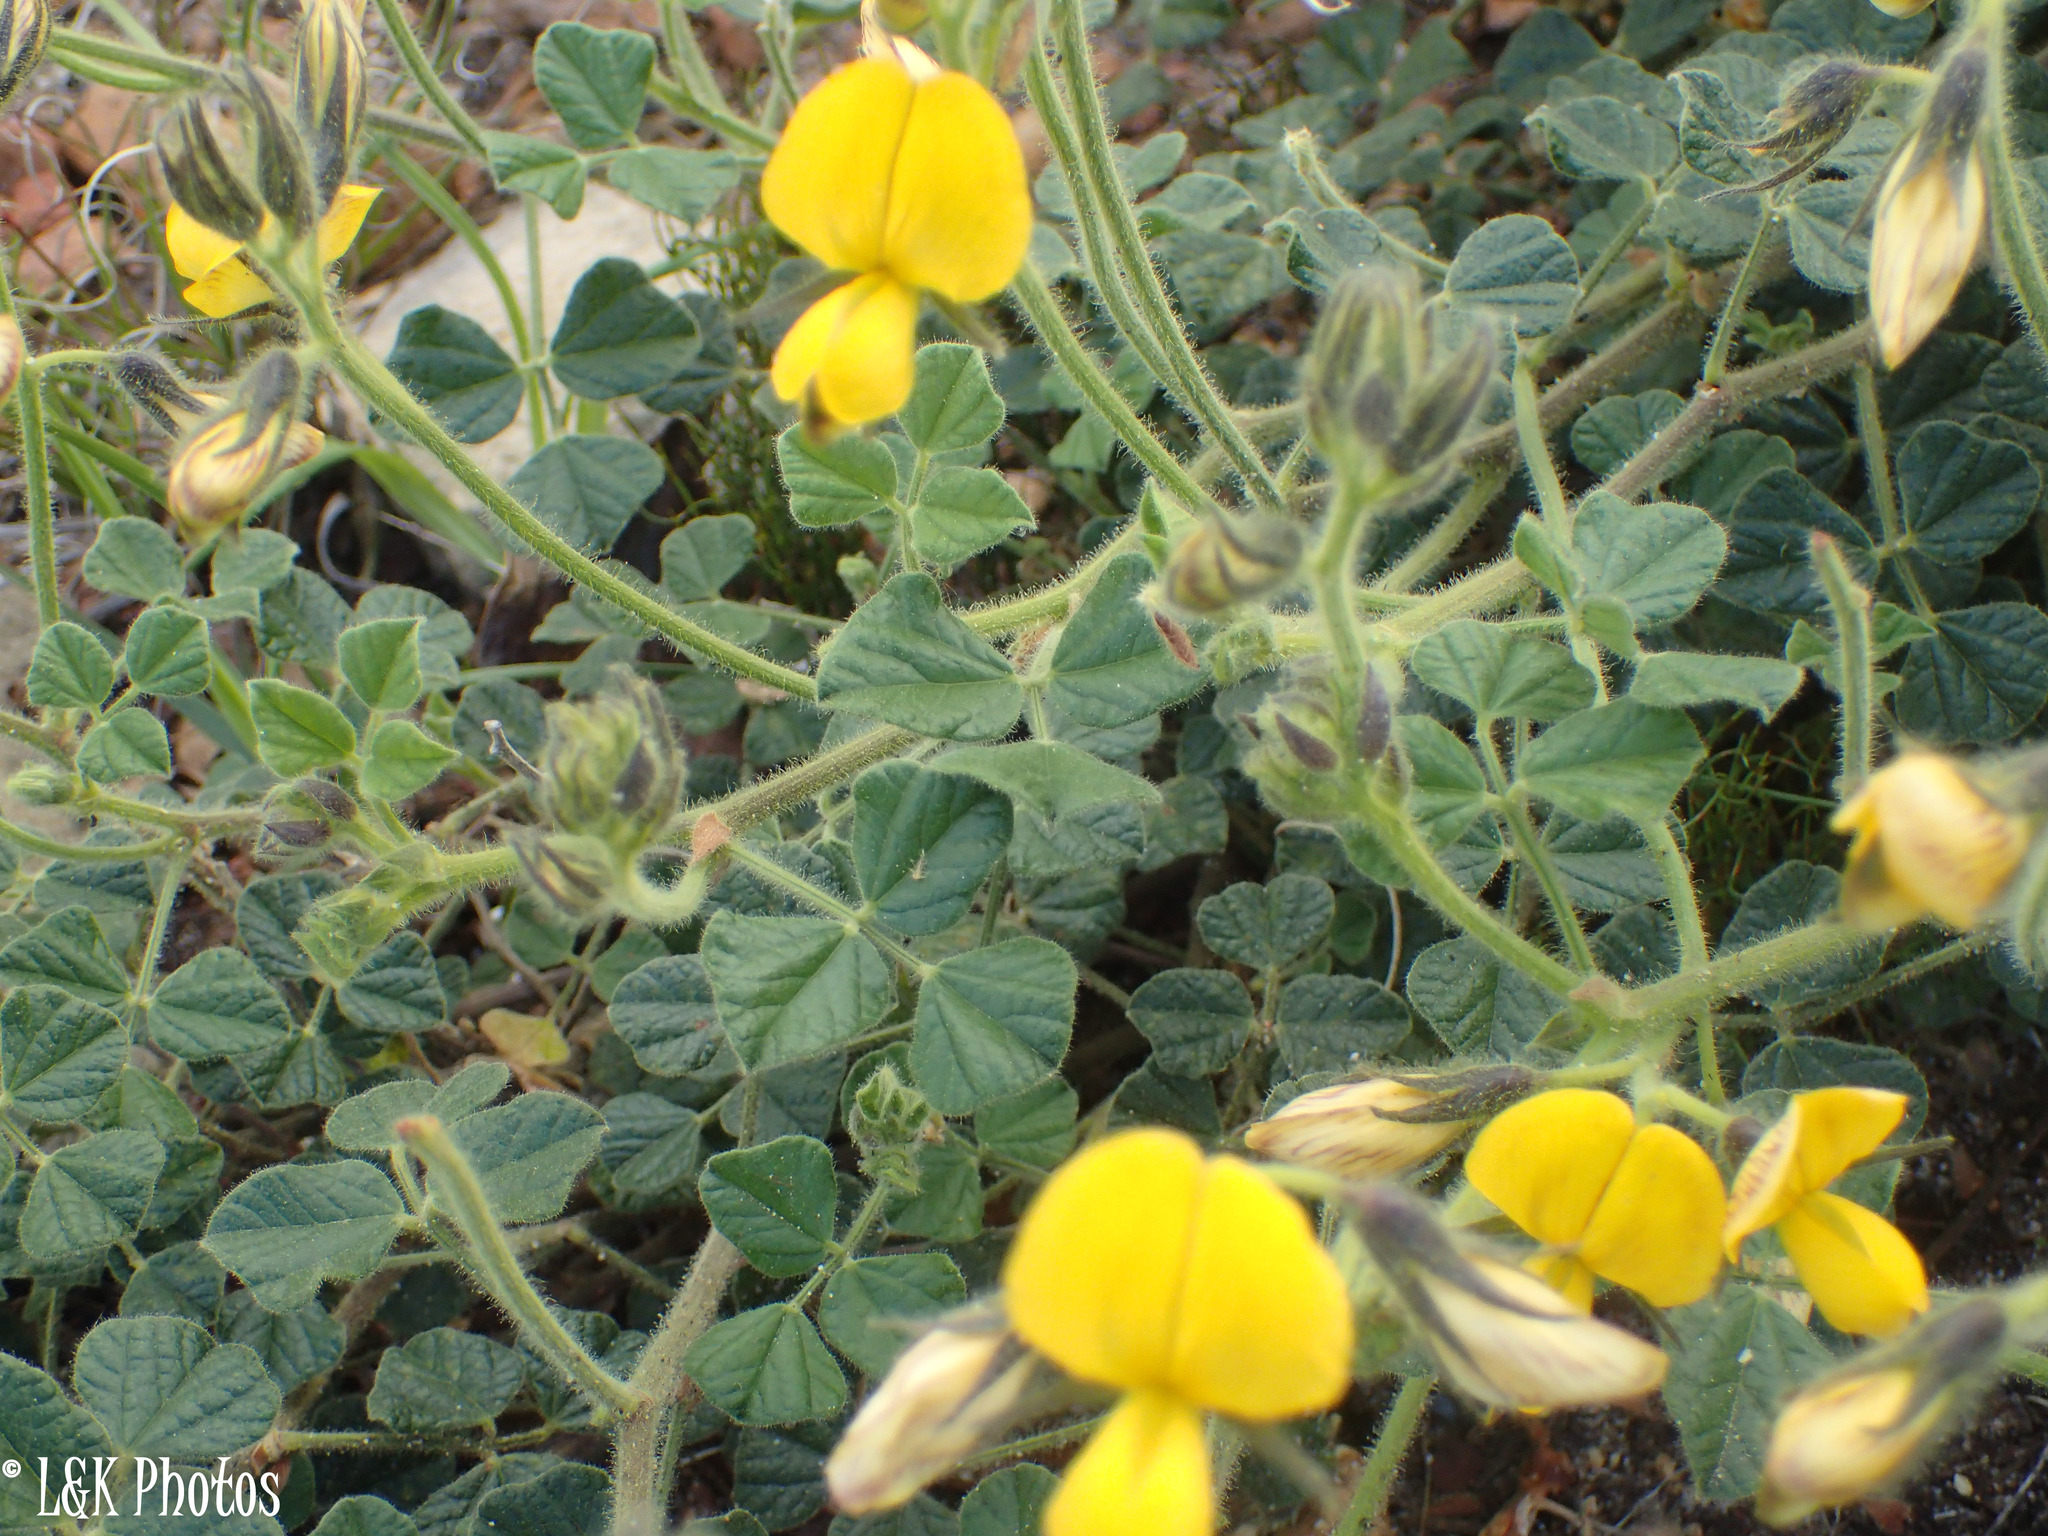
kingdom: Plantae
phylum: Tracheophyta
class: Magnoliopsida
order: Fabales
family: Fabaceae
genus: Bolusafra
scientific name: Bolusafra bituminosa
